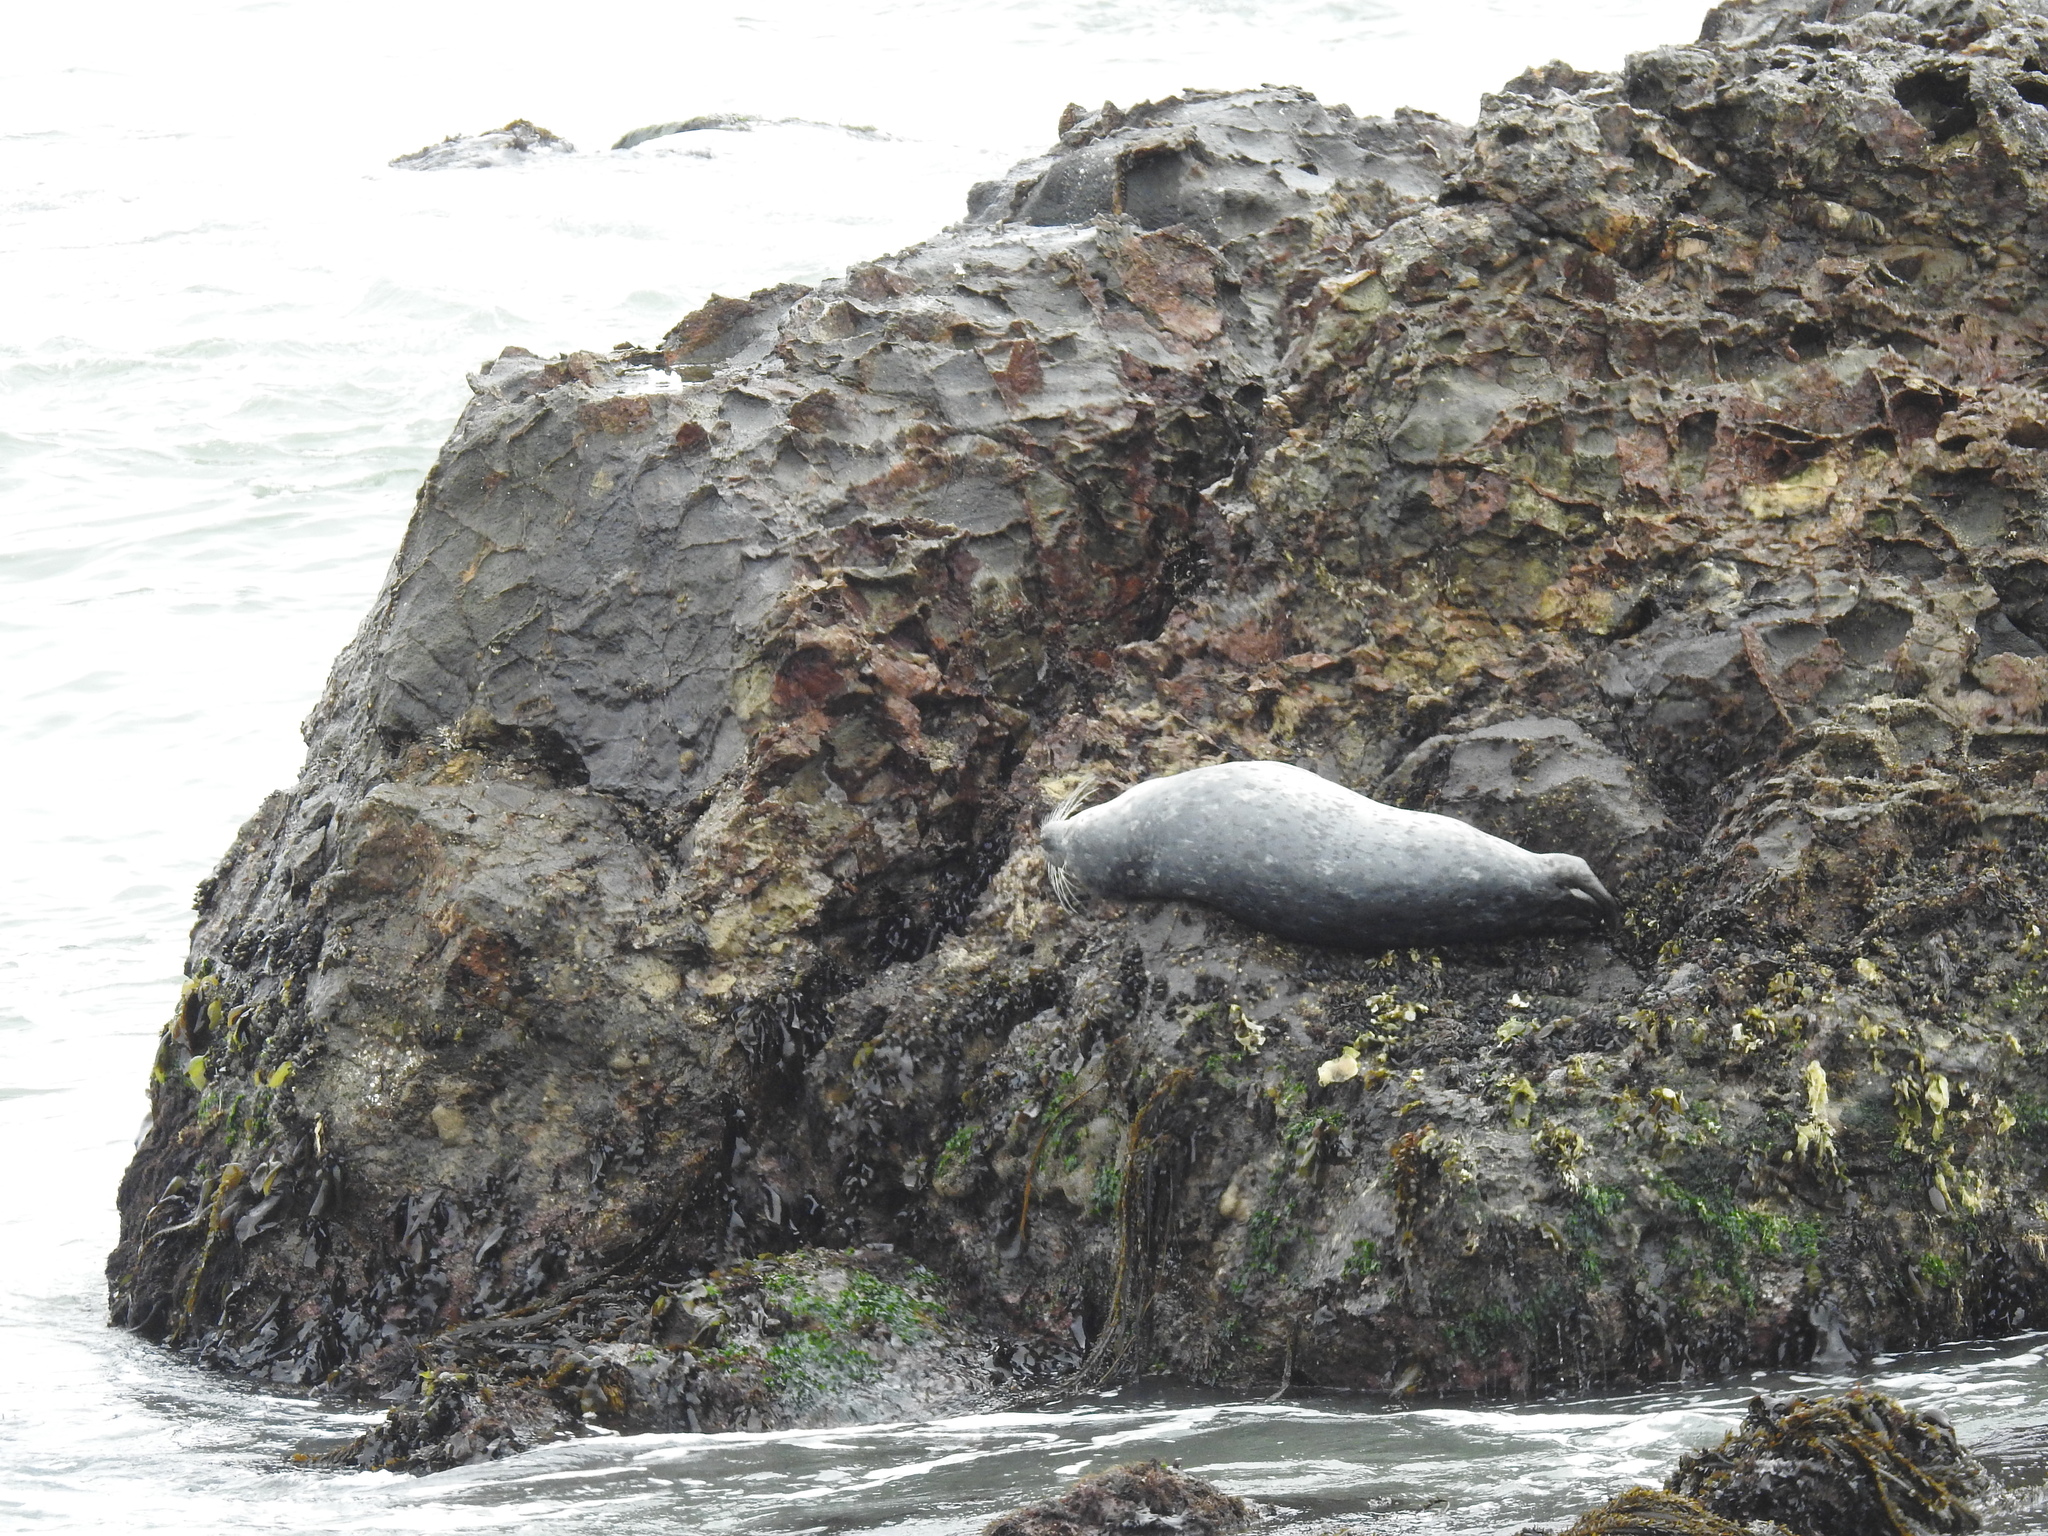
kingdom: Animalia
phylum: Chordata
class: Mammalia
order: Carnivora
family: Phocidae
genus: Phoca
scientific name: Phoca vitulina
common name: Harbor seal
